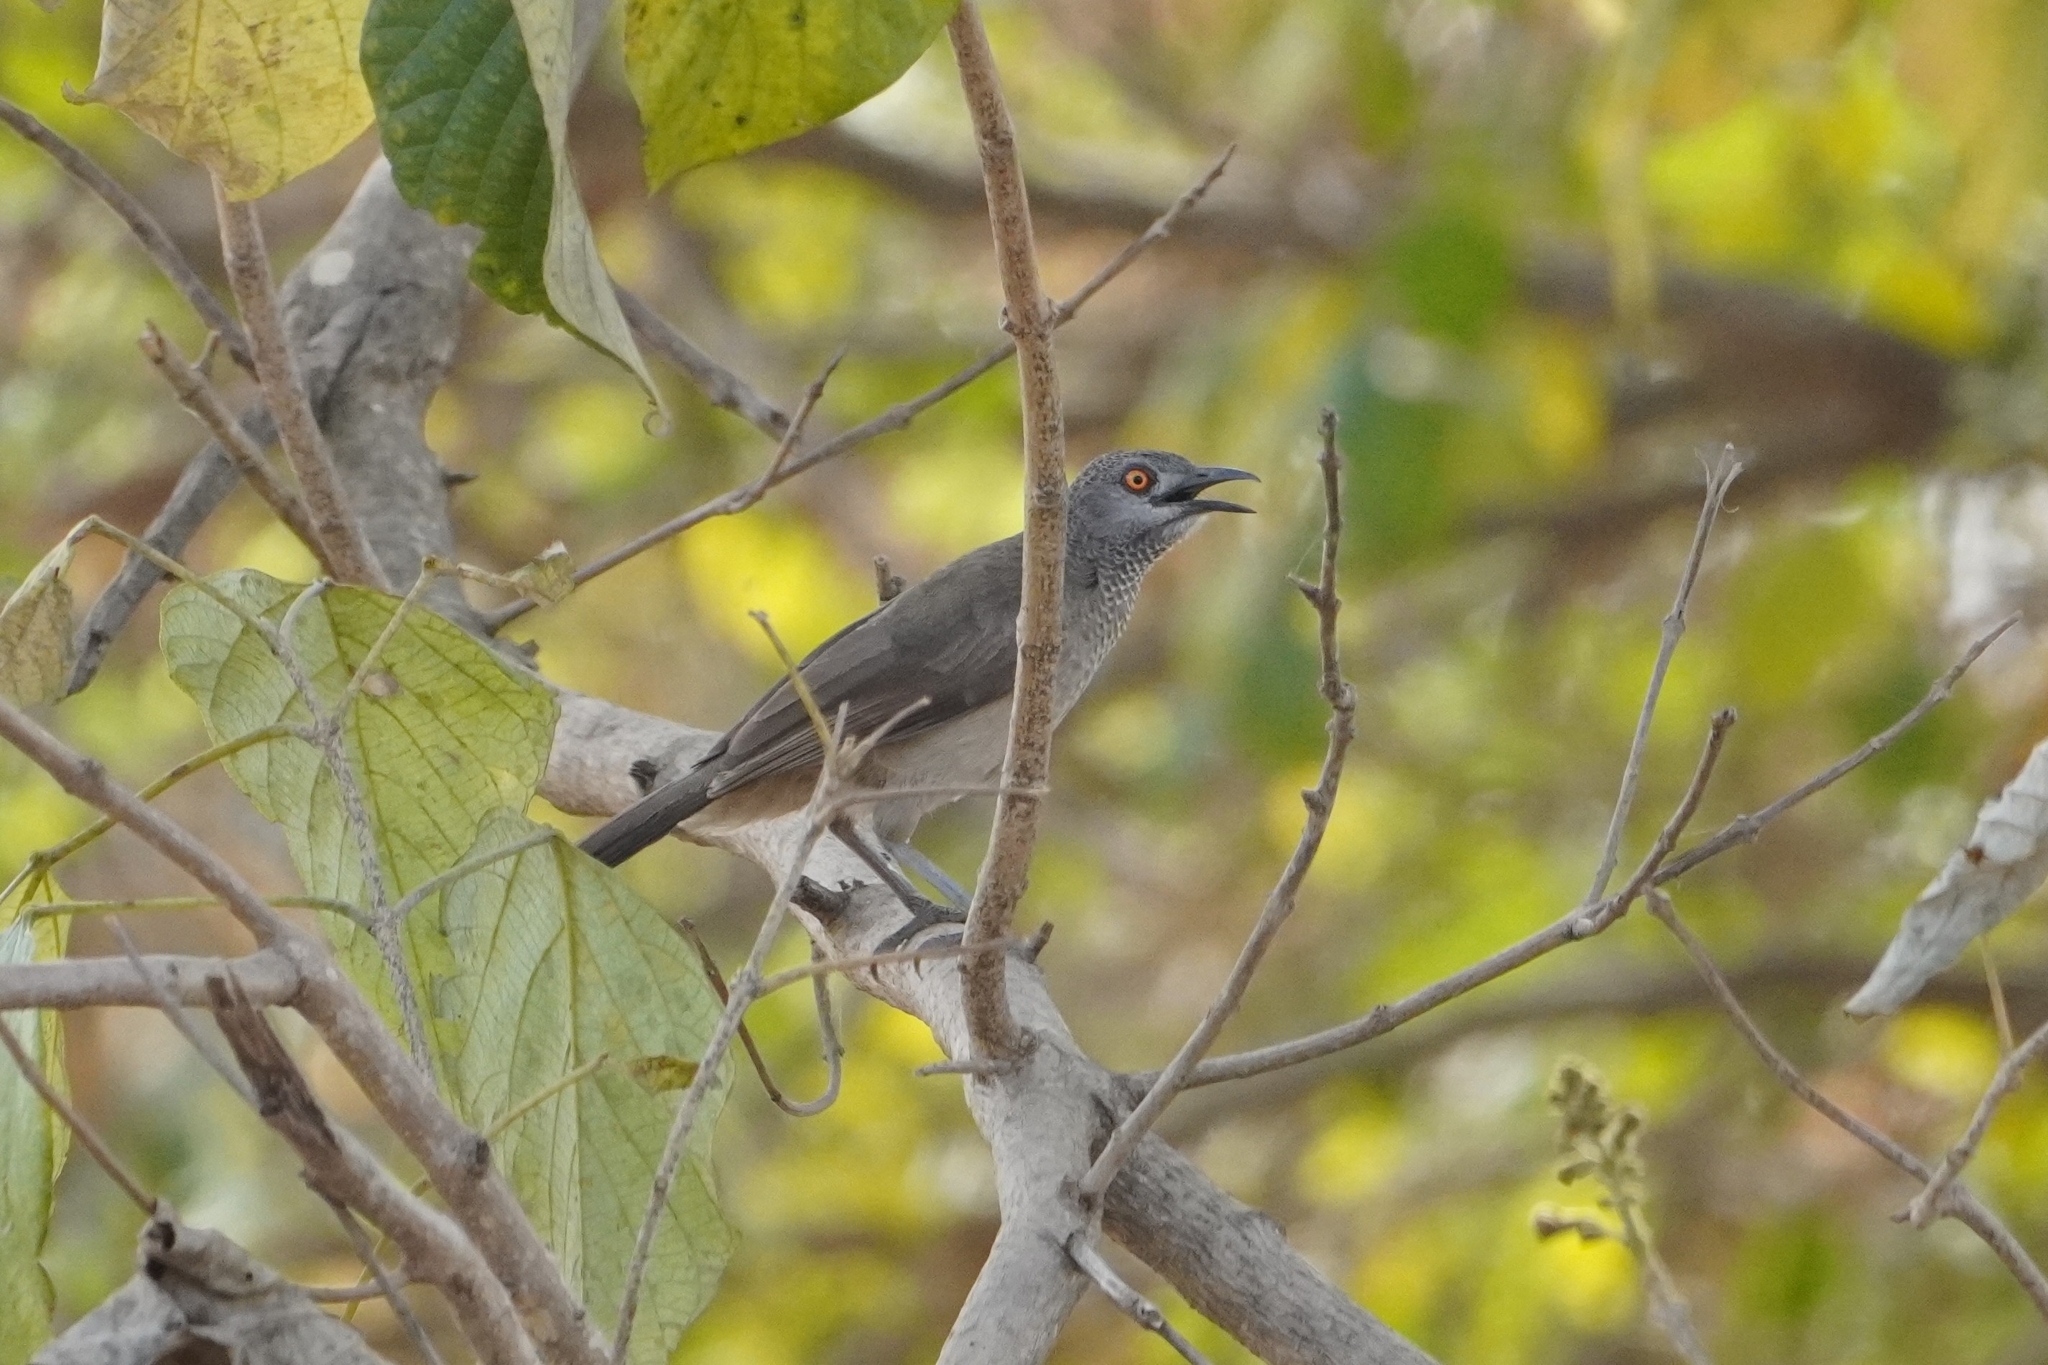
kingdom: Animalia
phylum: Chordata
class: Aves
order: Passeriformes
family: Leiothrichidae
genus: Turdoides
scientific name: Turdoides plebejus
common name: Brown babbler
